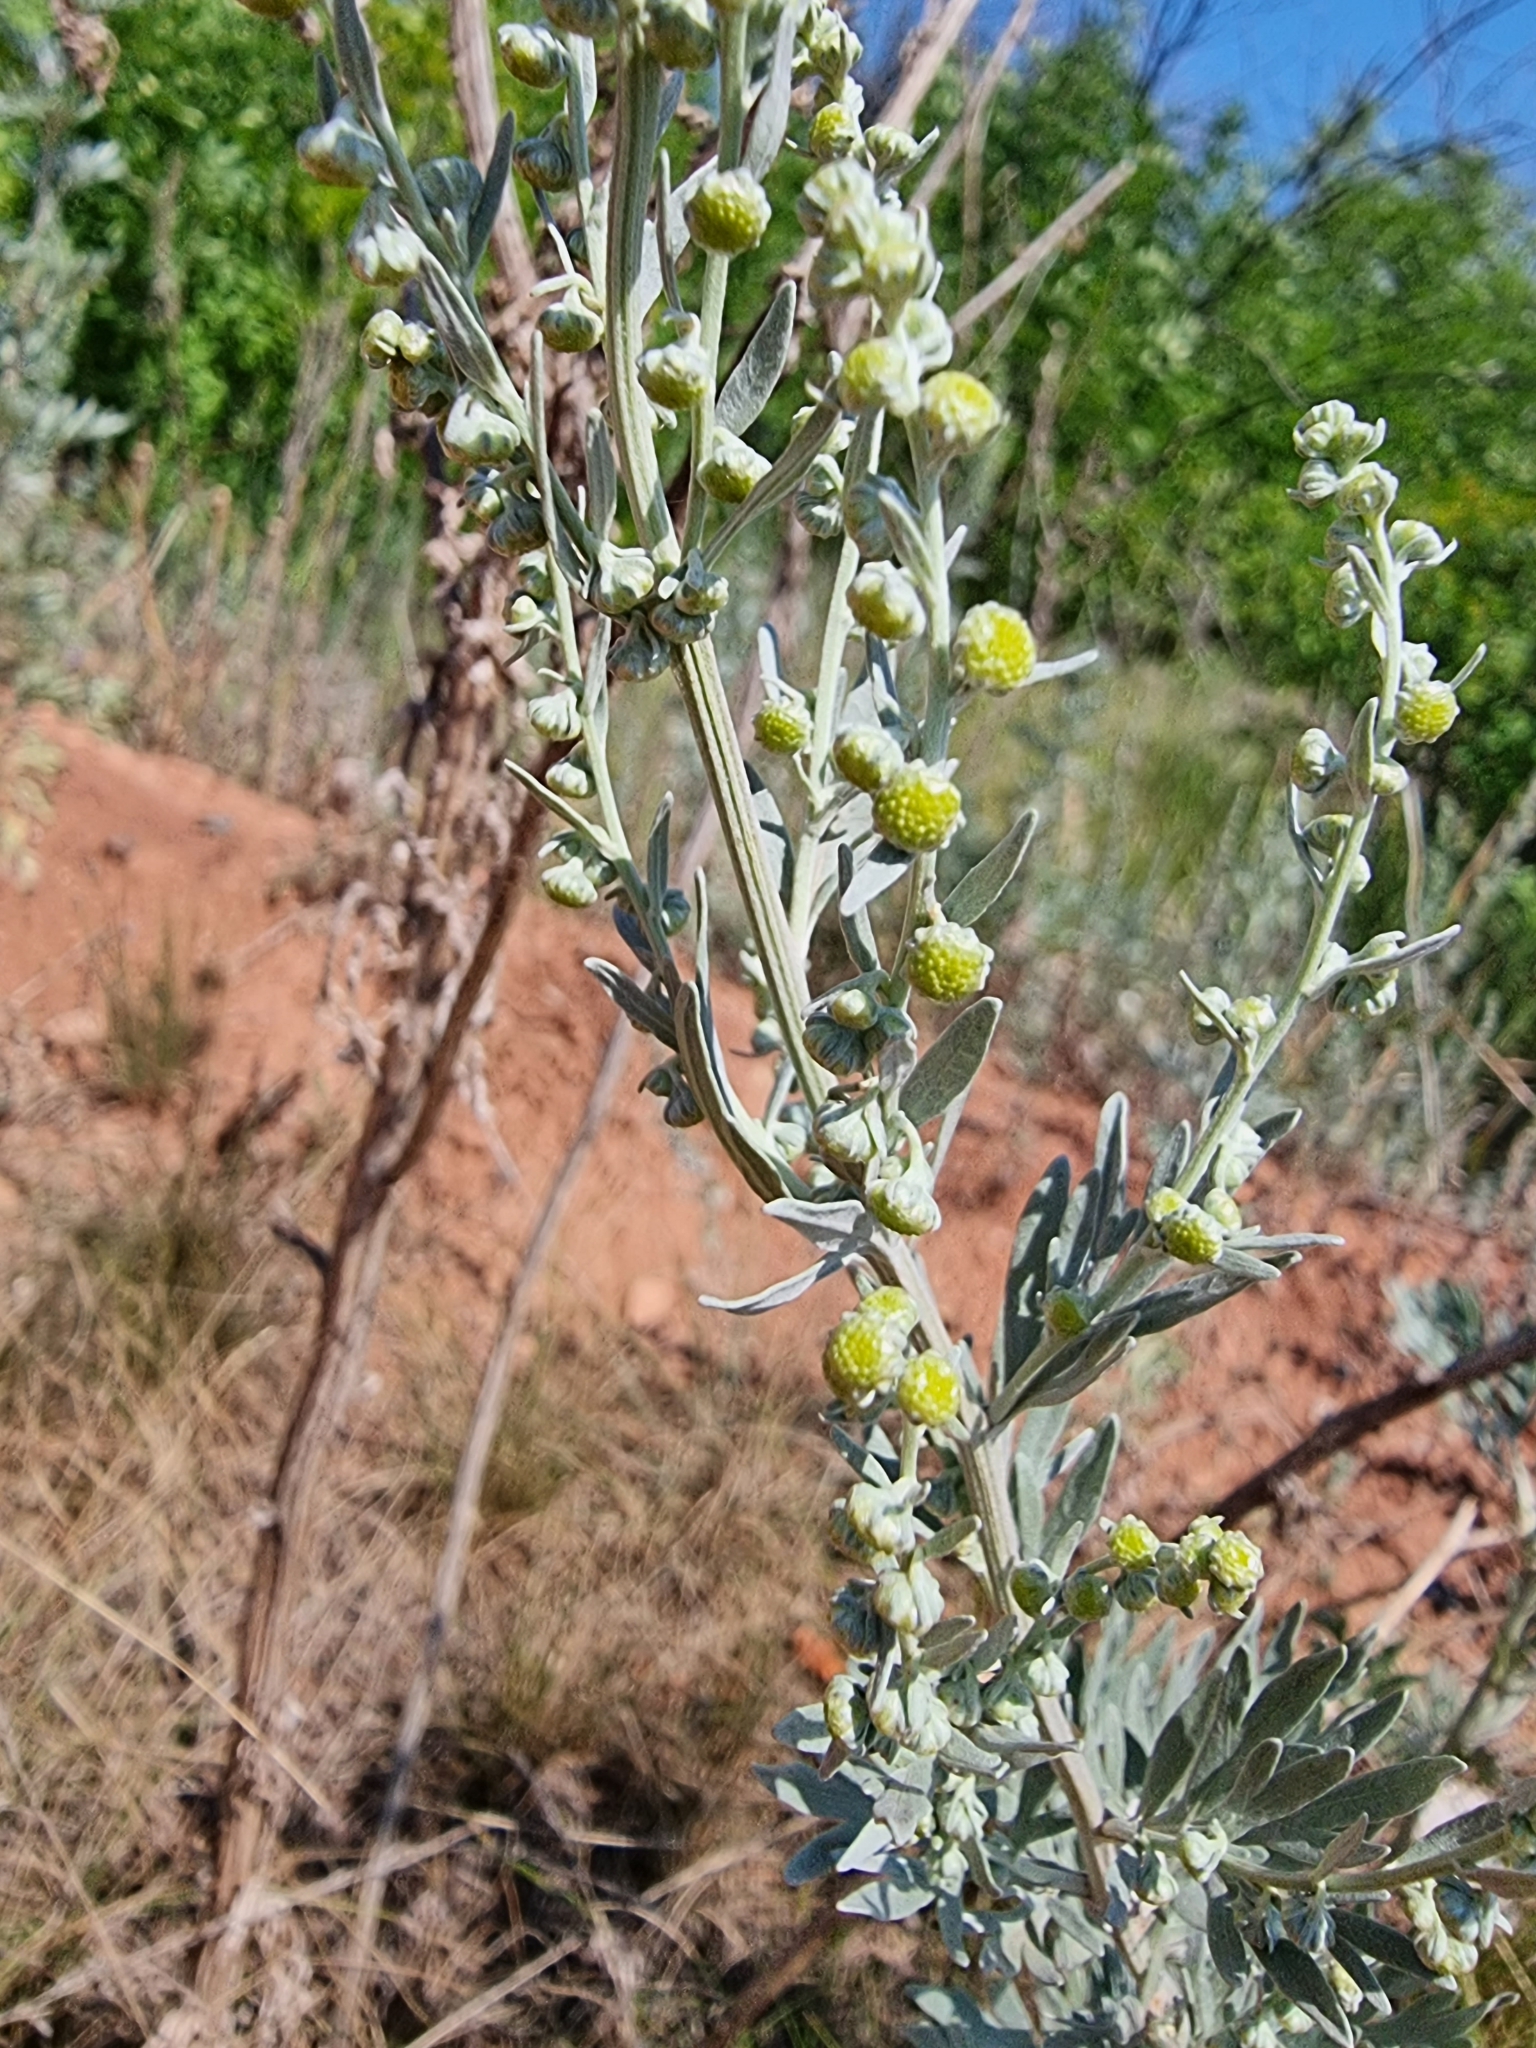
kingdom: Plantae
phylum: Tracheophyta
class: Magnoliopsida
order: Asterales
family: Asteraceae
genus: Artemisia
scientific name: Artemisia absinthium
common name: Wormwood
